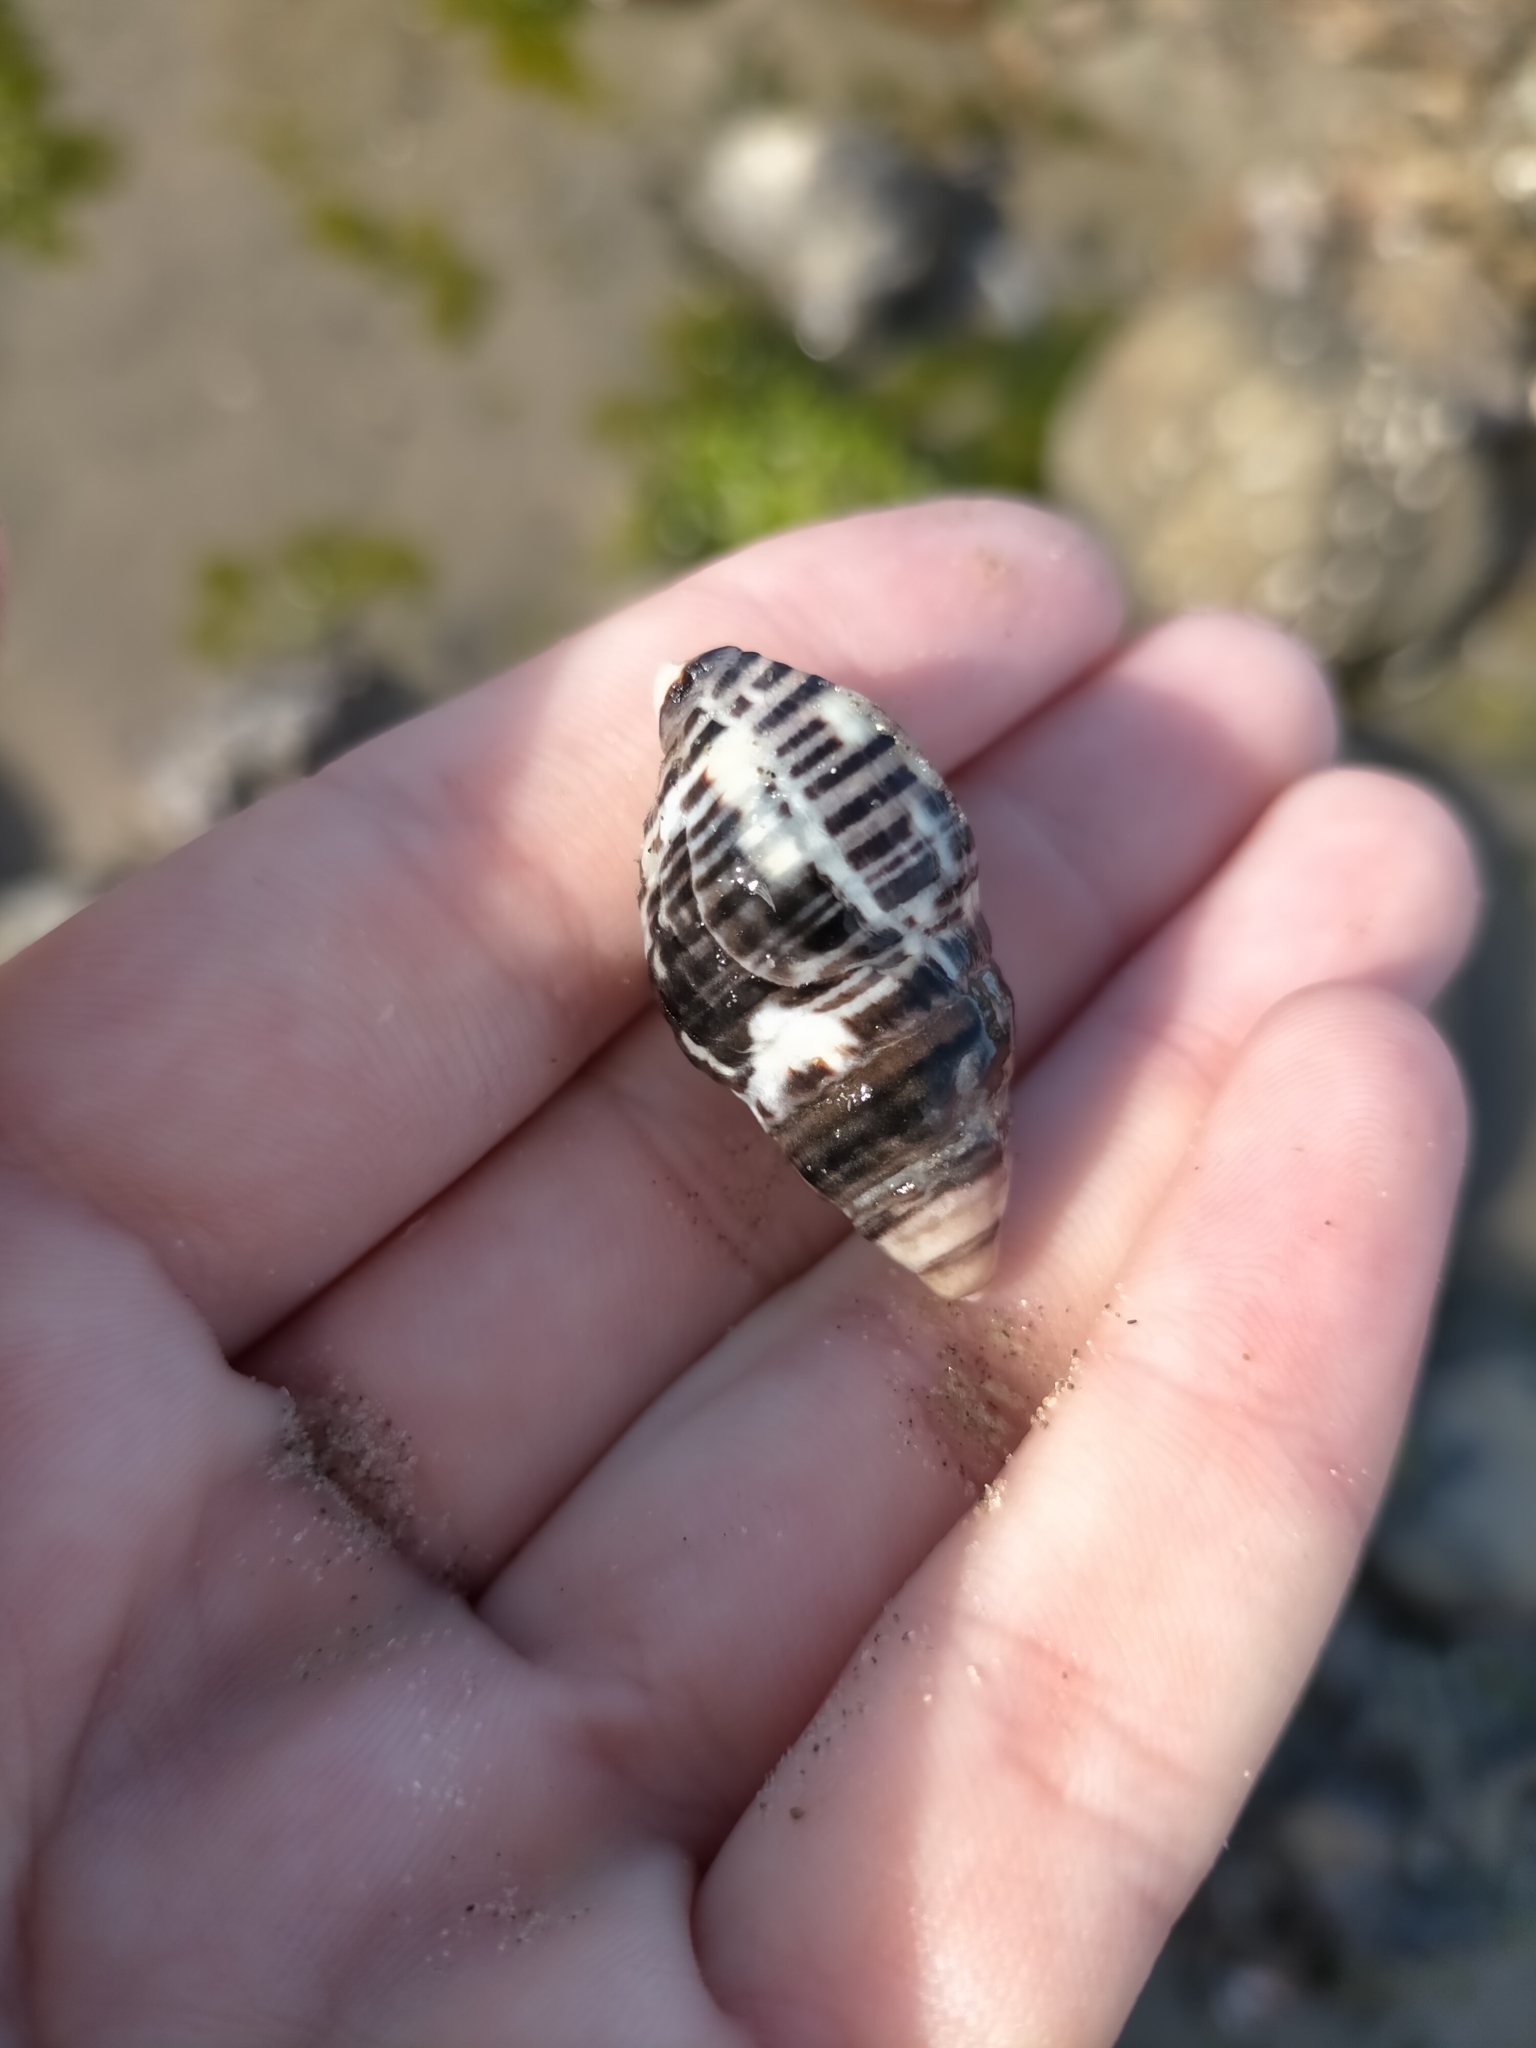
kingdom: Animalia
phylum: Mollusca
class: Gastropoda
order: Neogastropoda
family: Cominellidae
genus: Cominella
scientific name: Cominella lineolata
